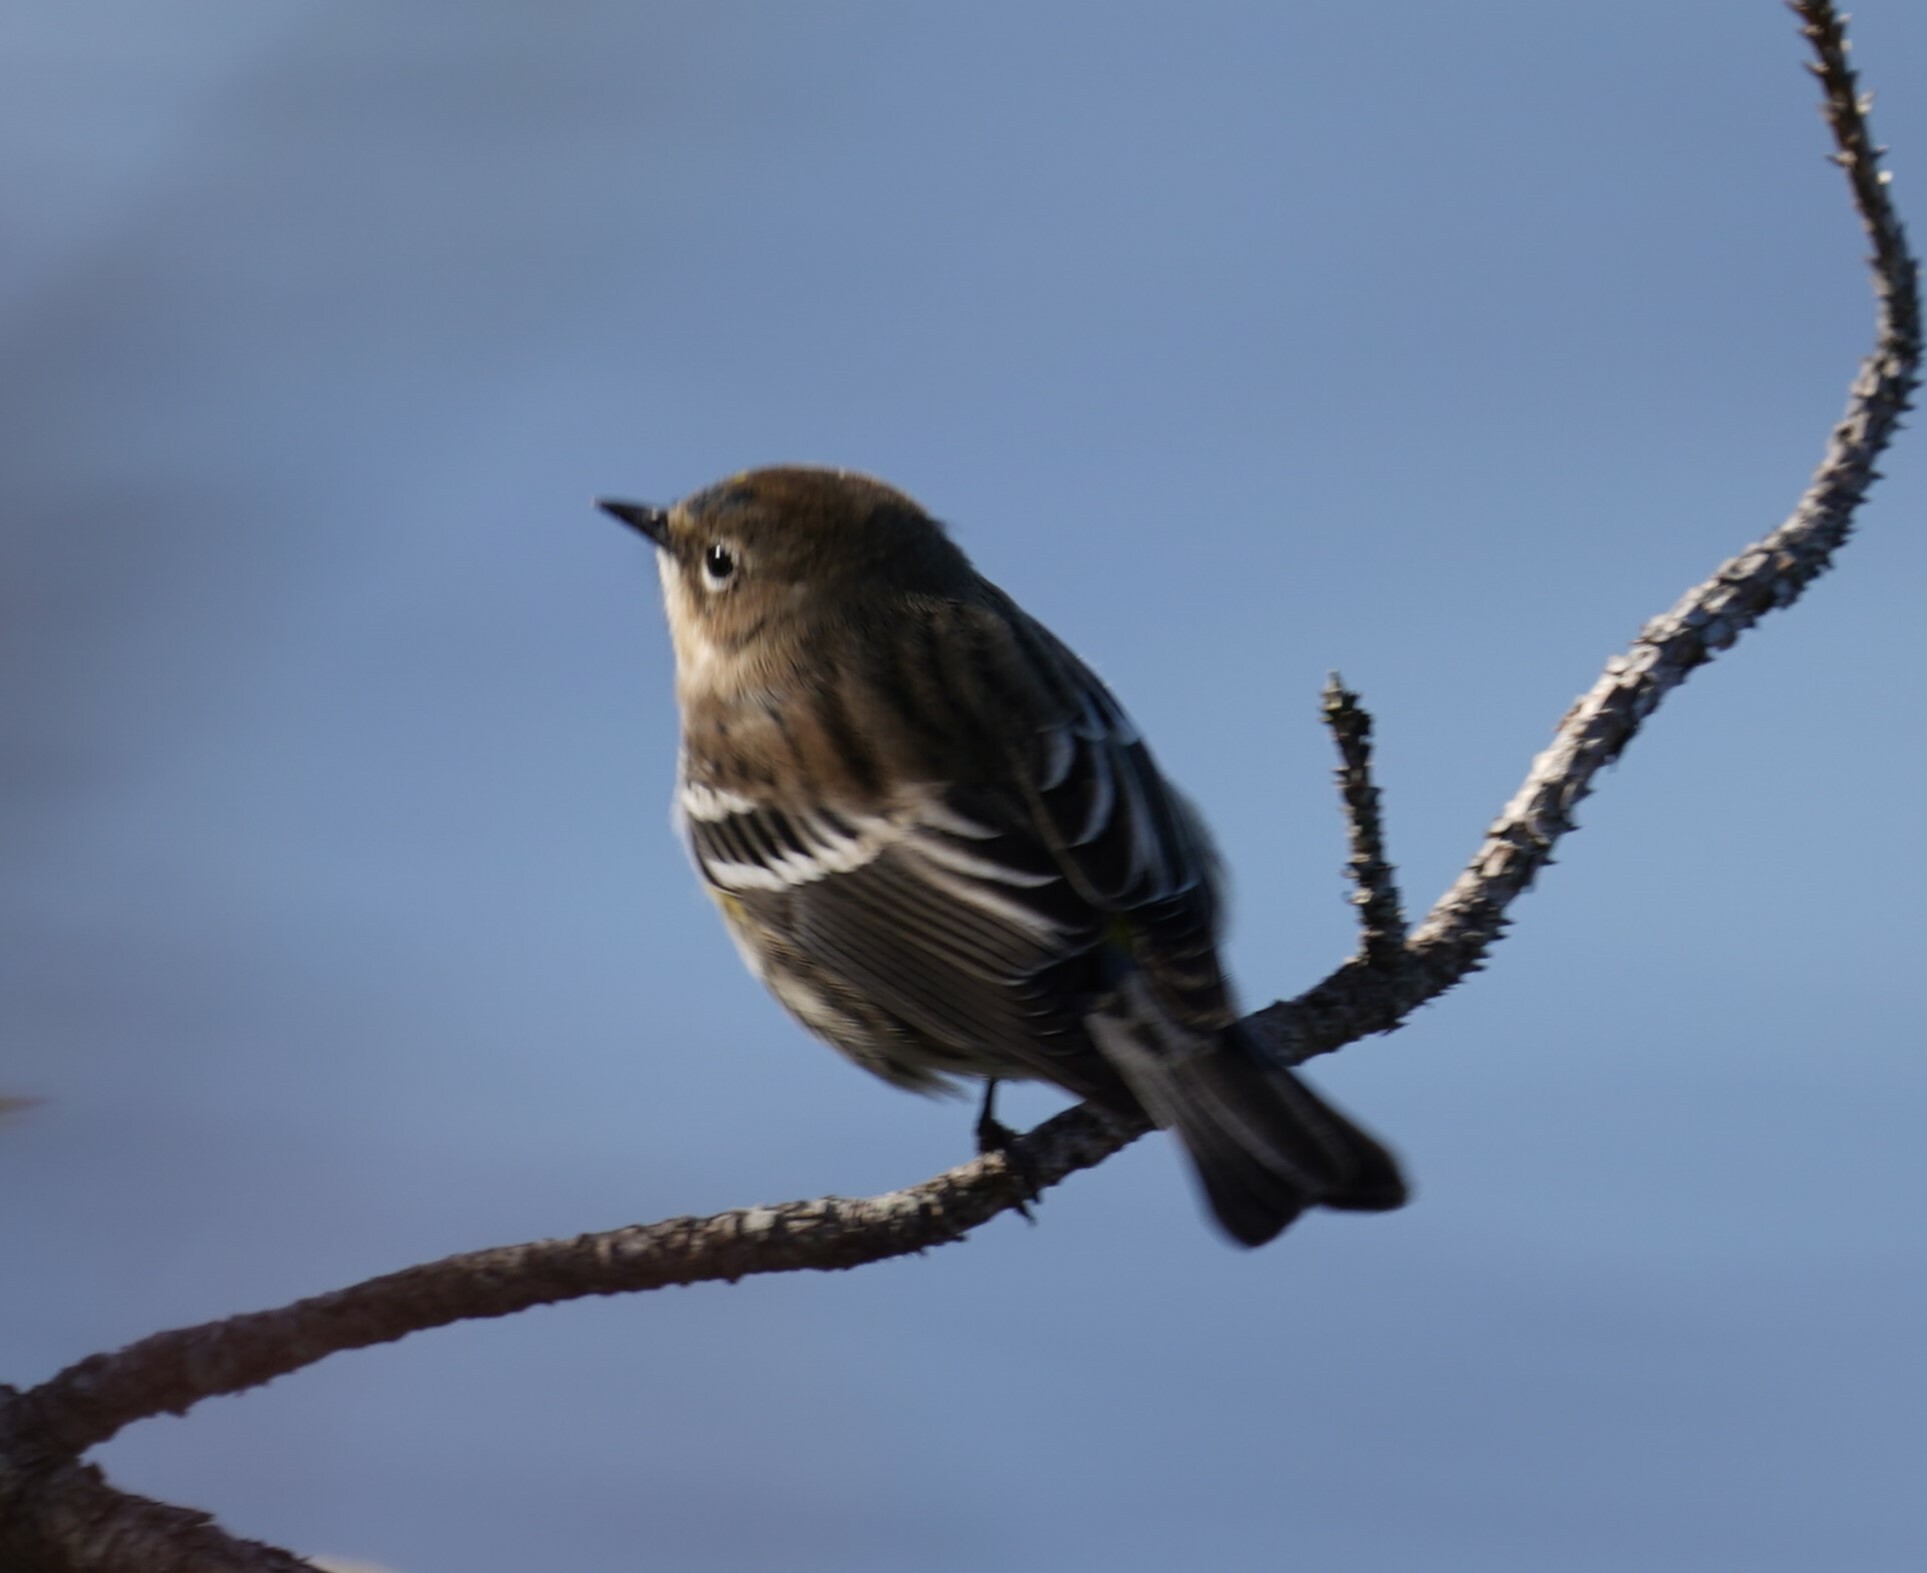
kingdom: Animalia
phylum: Chordata
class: Aves
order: Passeriformes
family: Parulidae
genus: Setophaga
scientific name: Setophaga coronata
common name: Myrtle warbler
